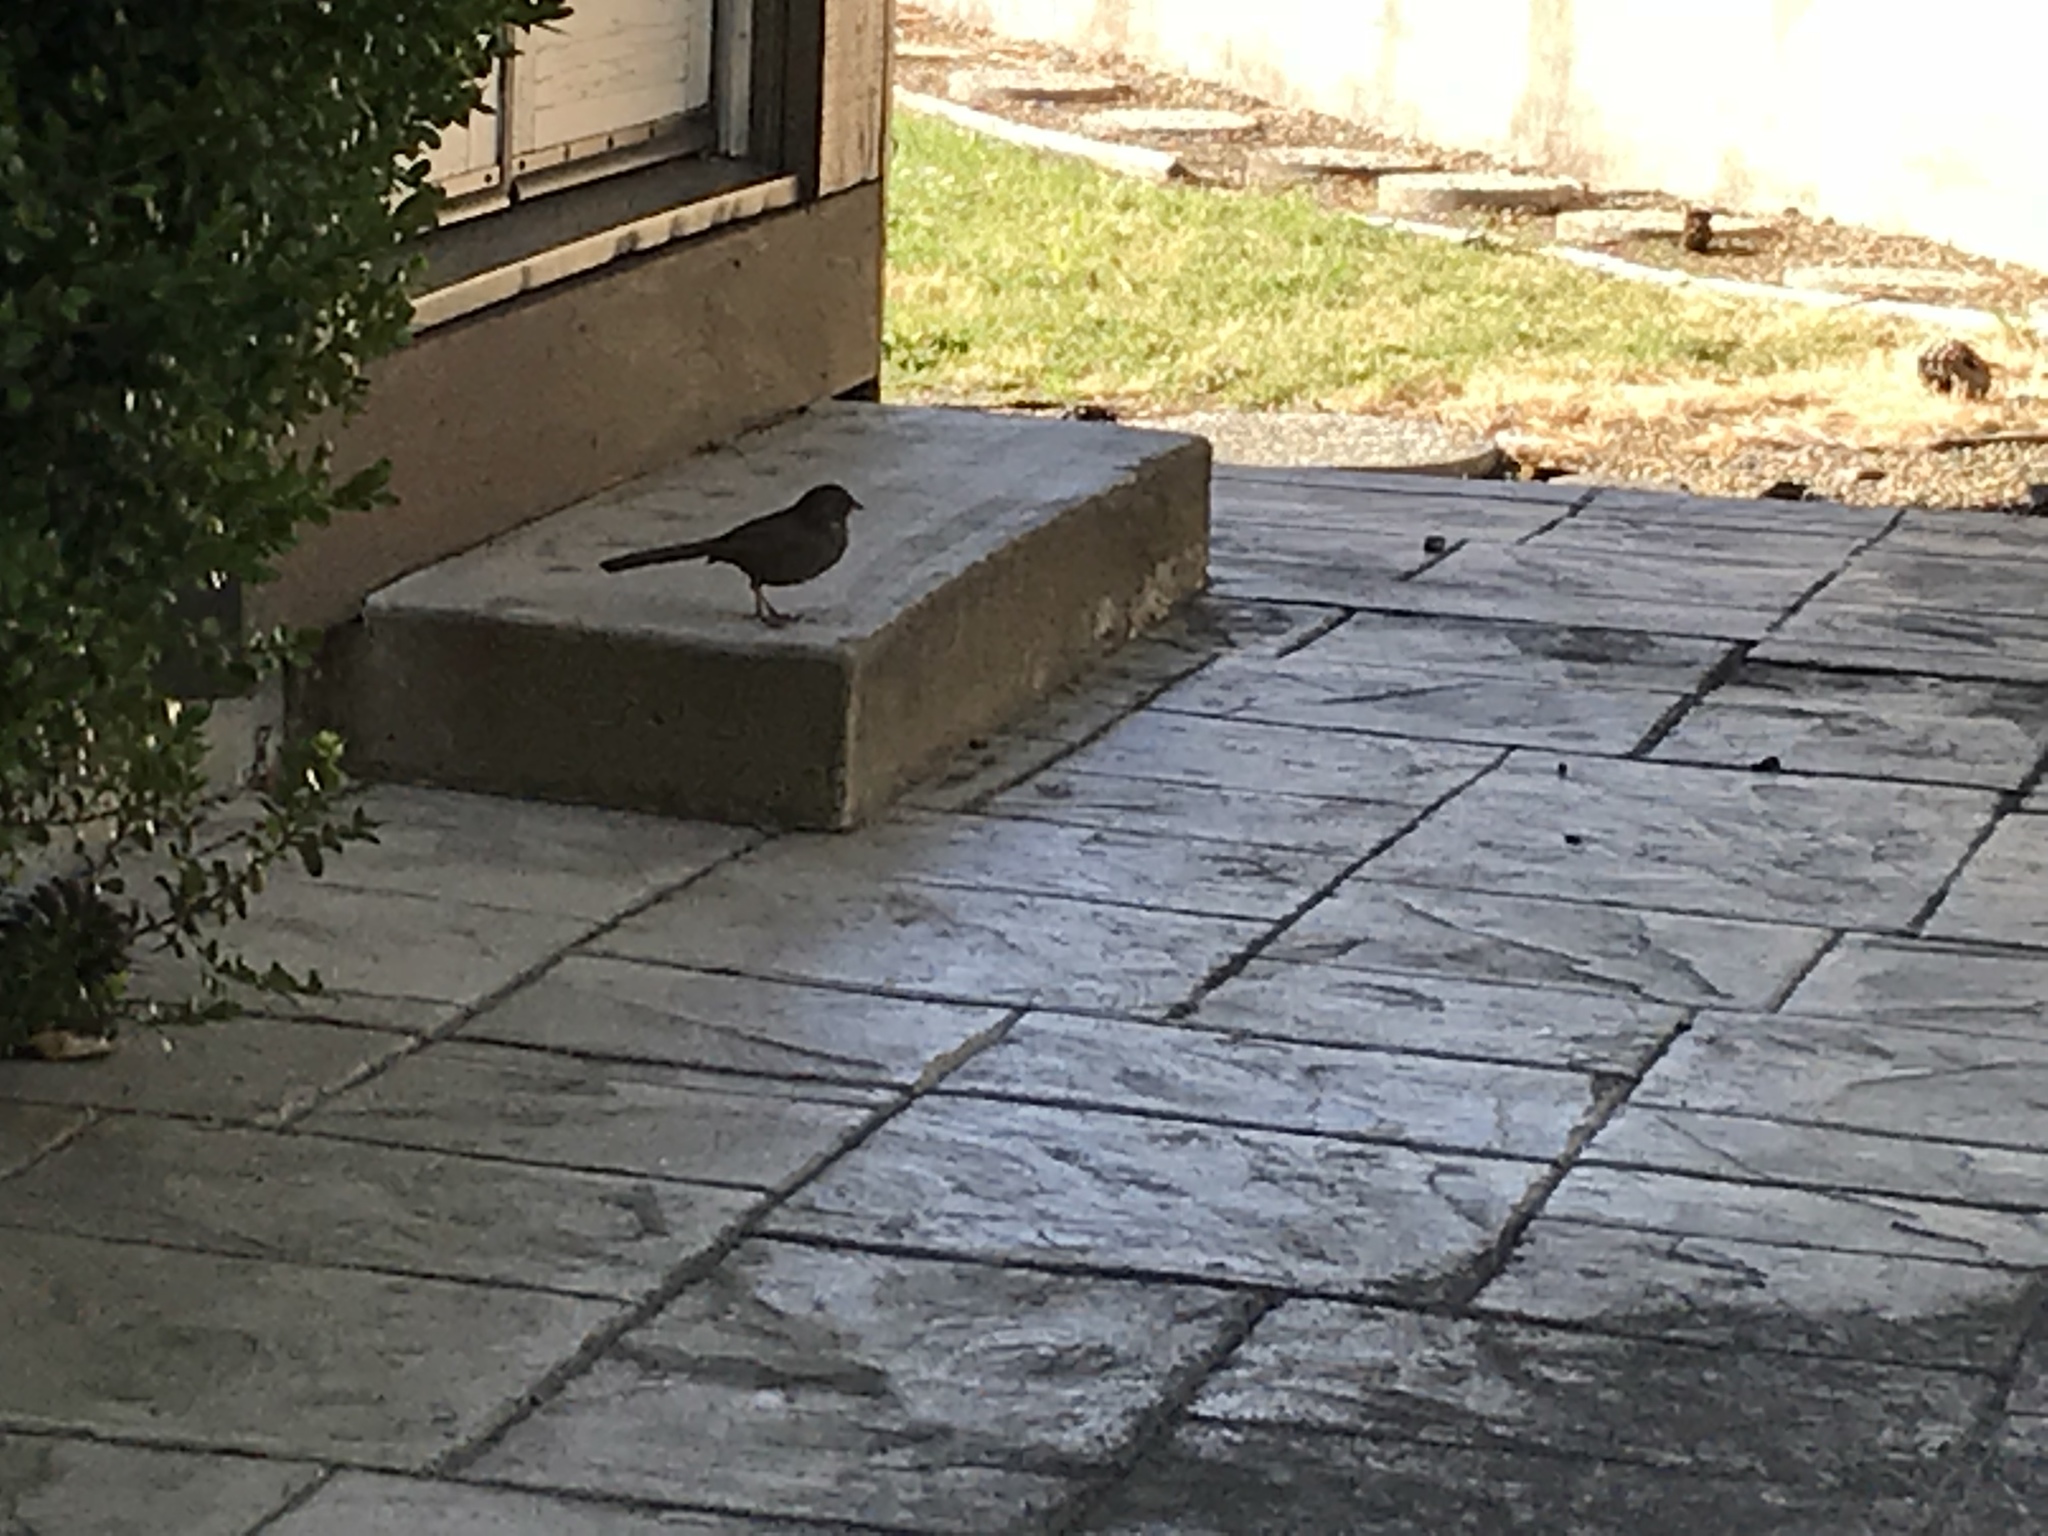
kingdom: Animalia
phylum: Chordata
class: Aves
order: Passeriformes
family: Passerellidae
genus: Melozone
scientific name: Melozone crissalis
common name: California towhee
